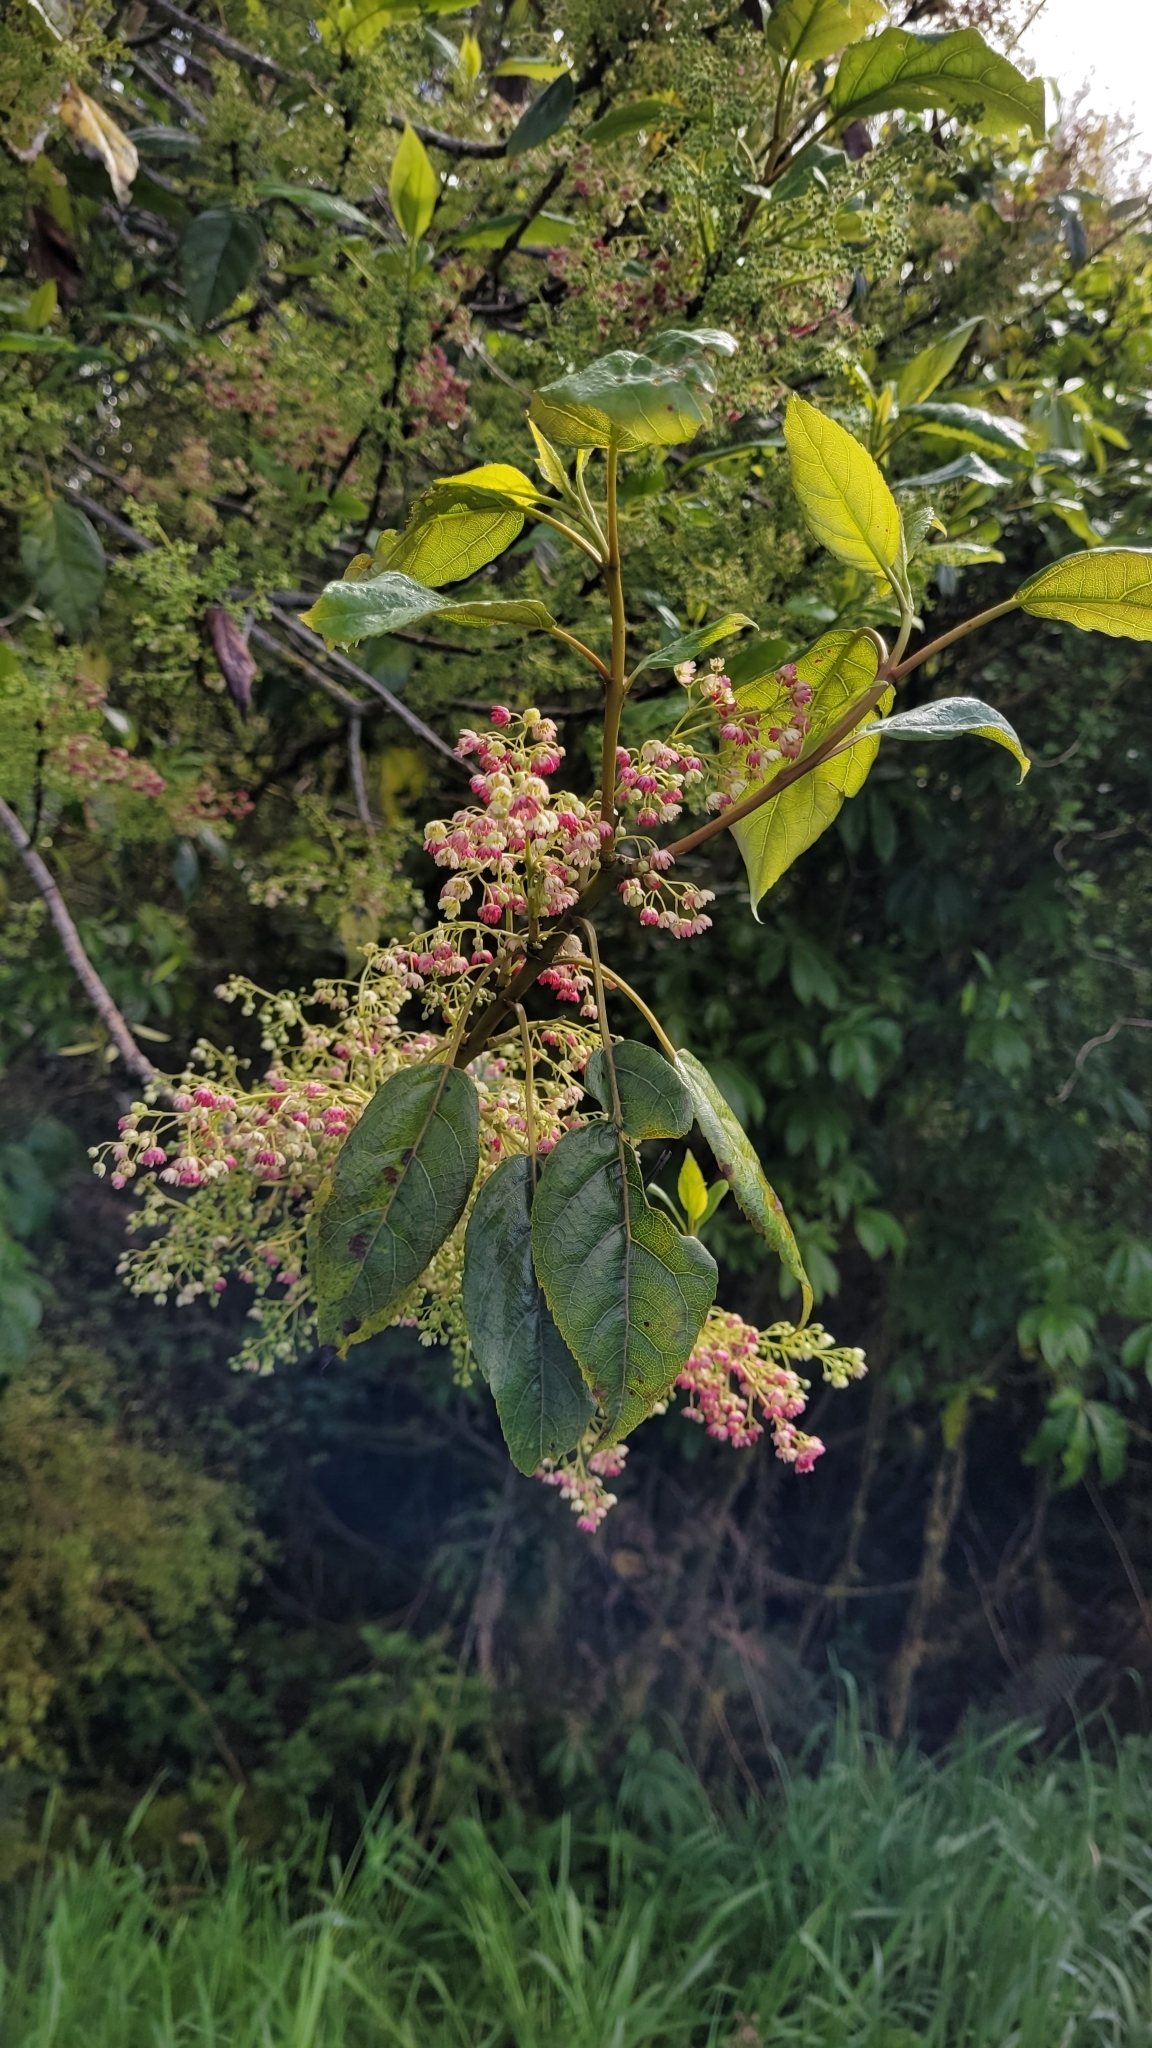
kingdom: Plantae
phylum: Tracheophyta
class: Magnoliopsida
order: Oxalidales
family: Elaeocarpaceae
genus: Aristotelia
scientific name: Aristotelia serrata
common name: New zealand wineberry
